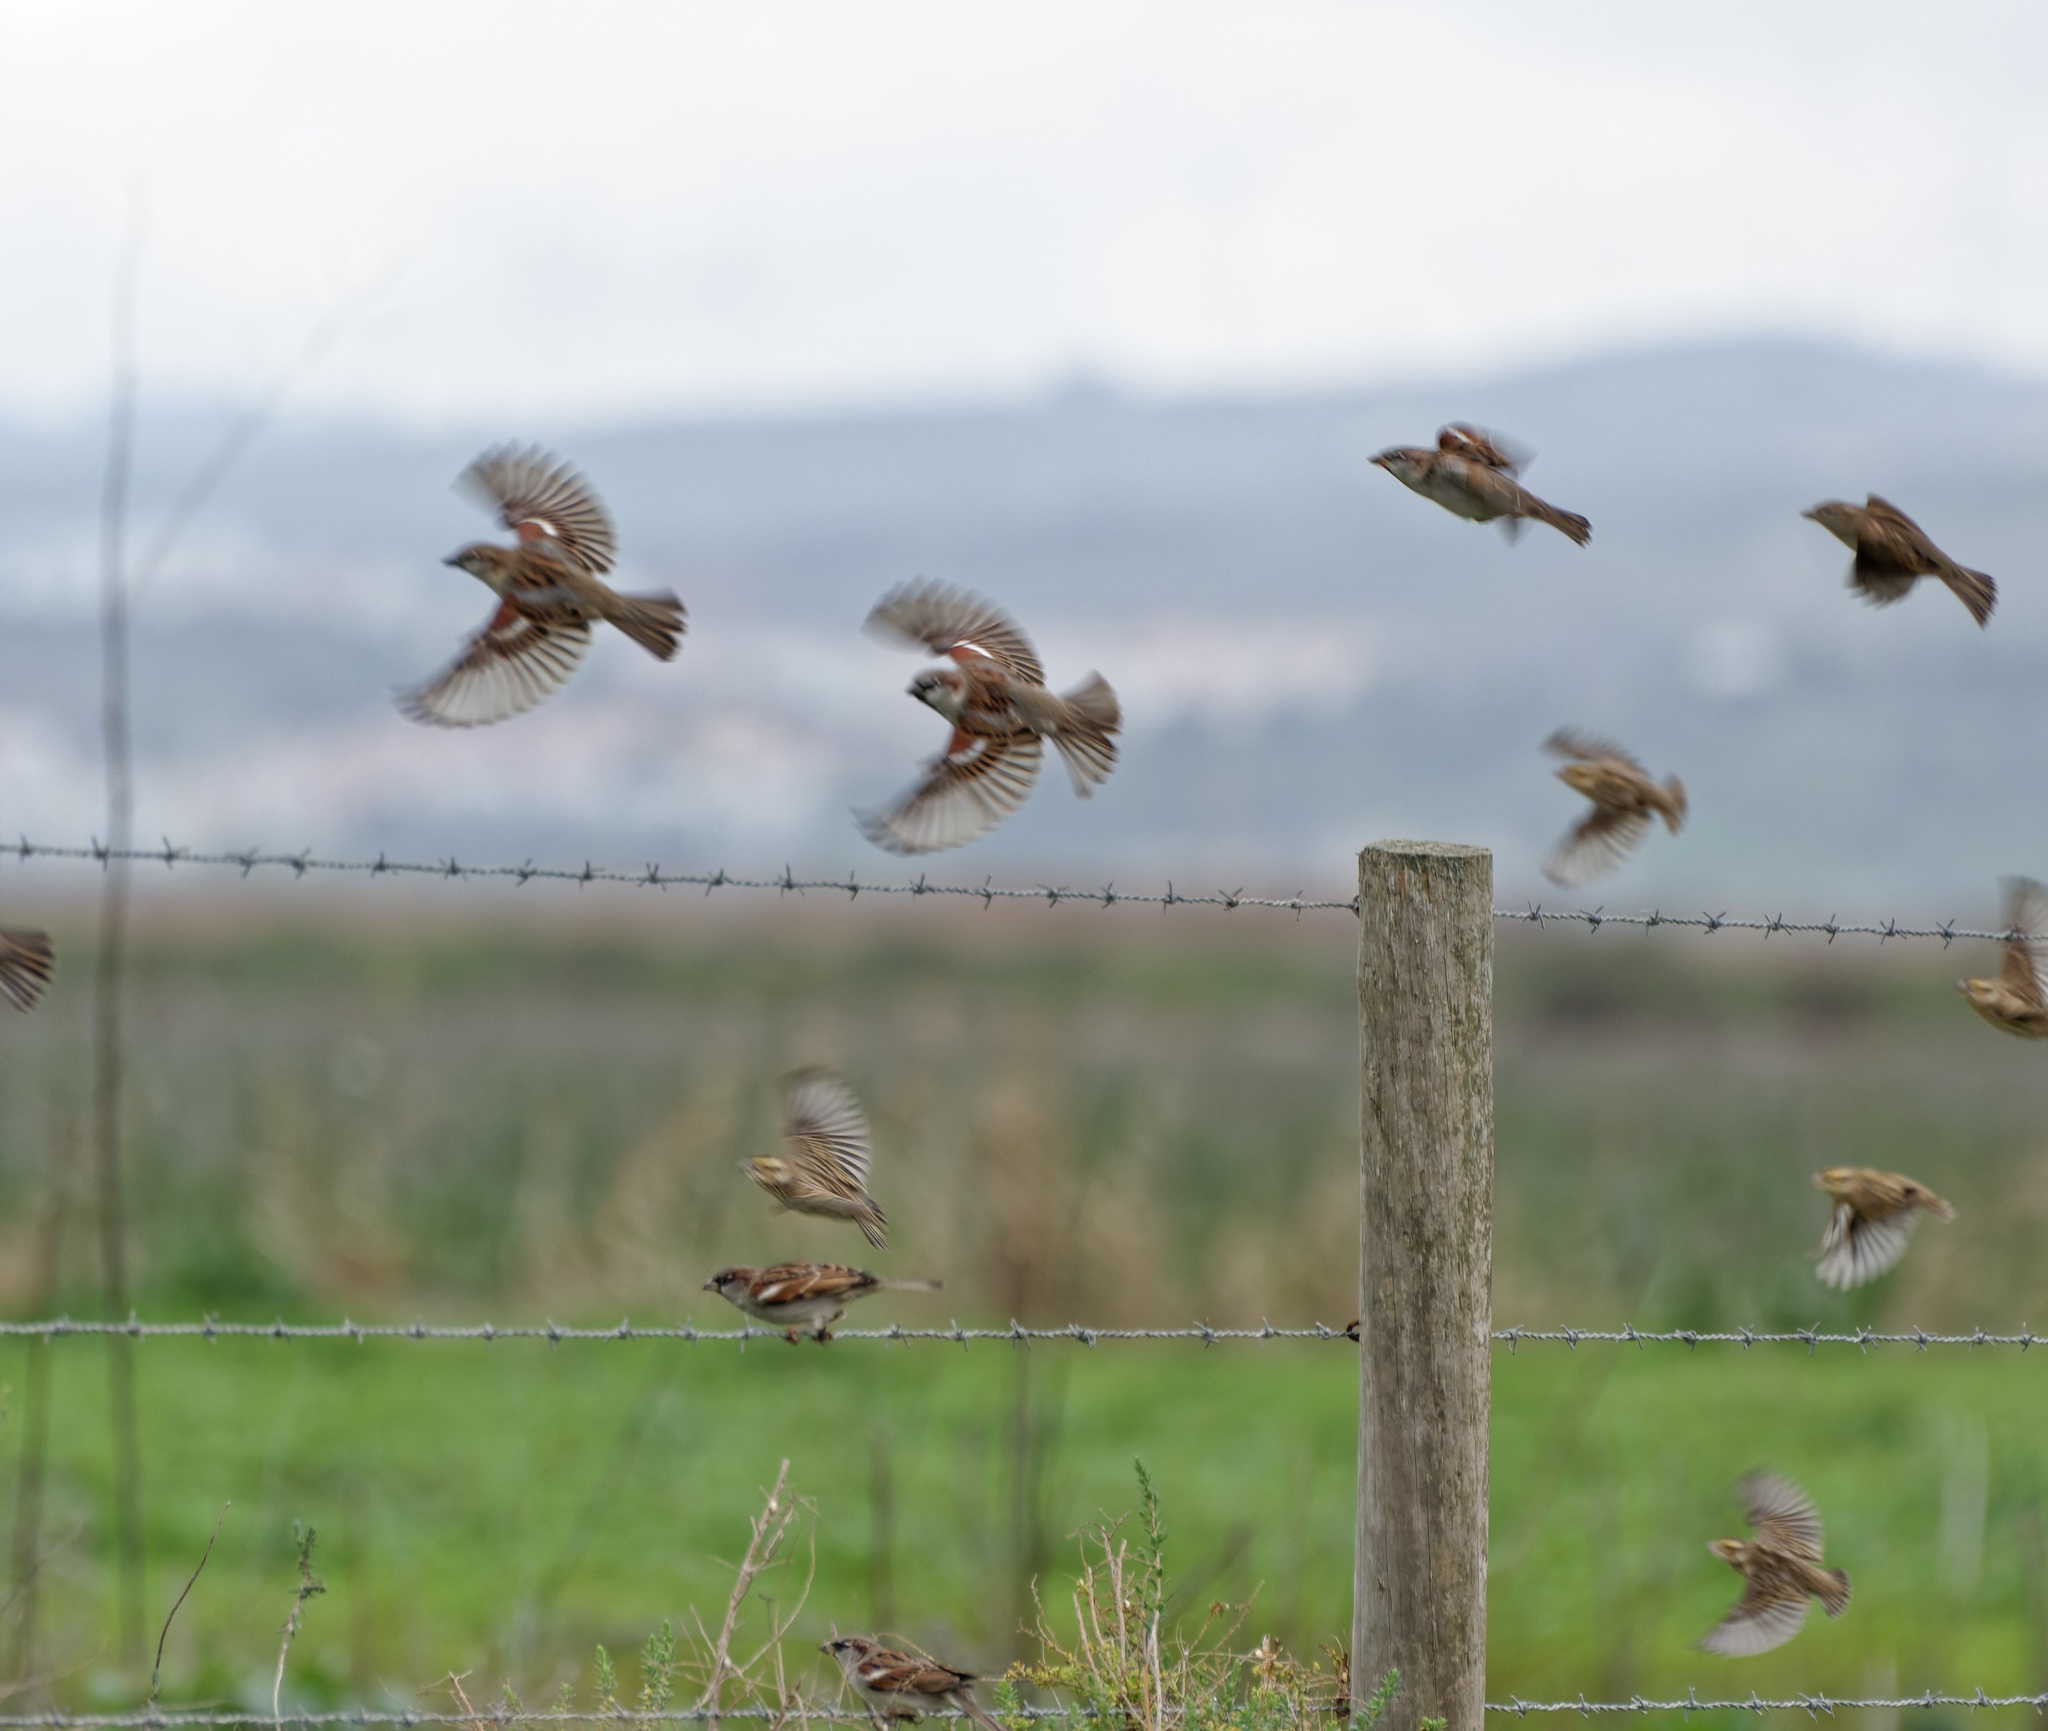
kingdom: Animalia
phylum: Chordata
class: Aves
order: Passeriformes
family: Passeridae
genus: Passer
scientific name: Passer domesticus
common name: House sparrow
